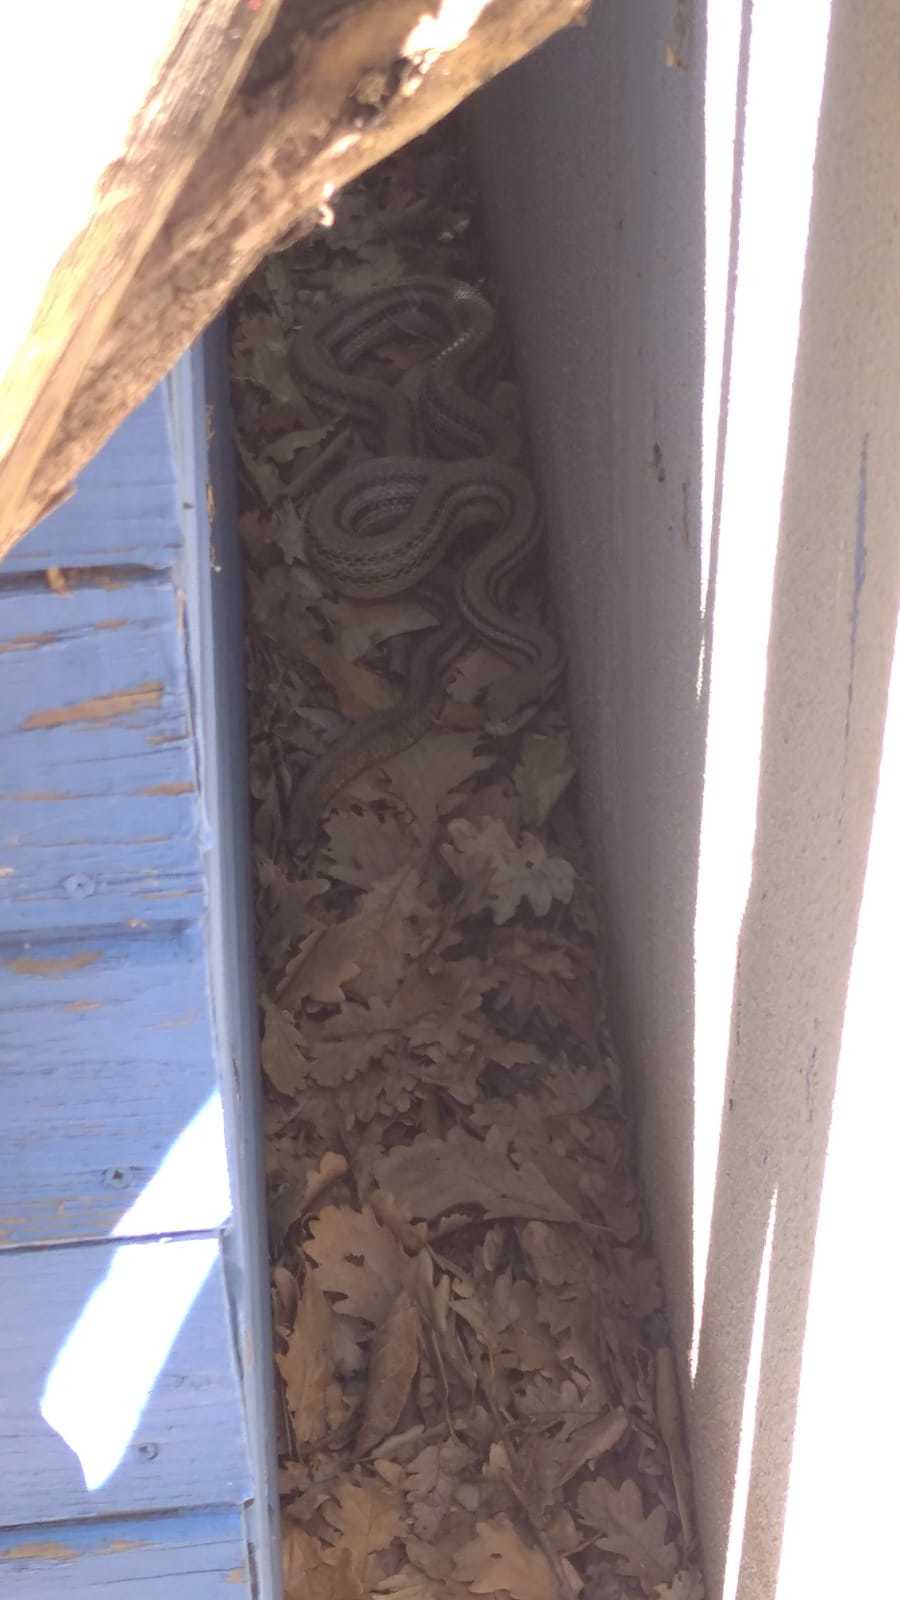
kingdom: Animalia
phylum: Chordata
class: Squamata
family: Colubridae
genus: Elaphe
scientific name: Elaphe quatuorlineata
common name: Four-lined snake
